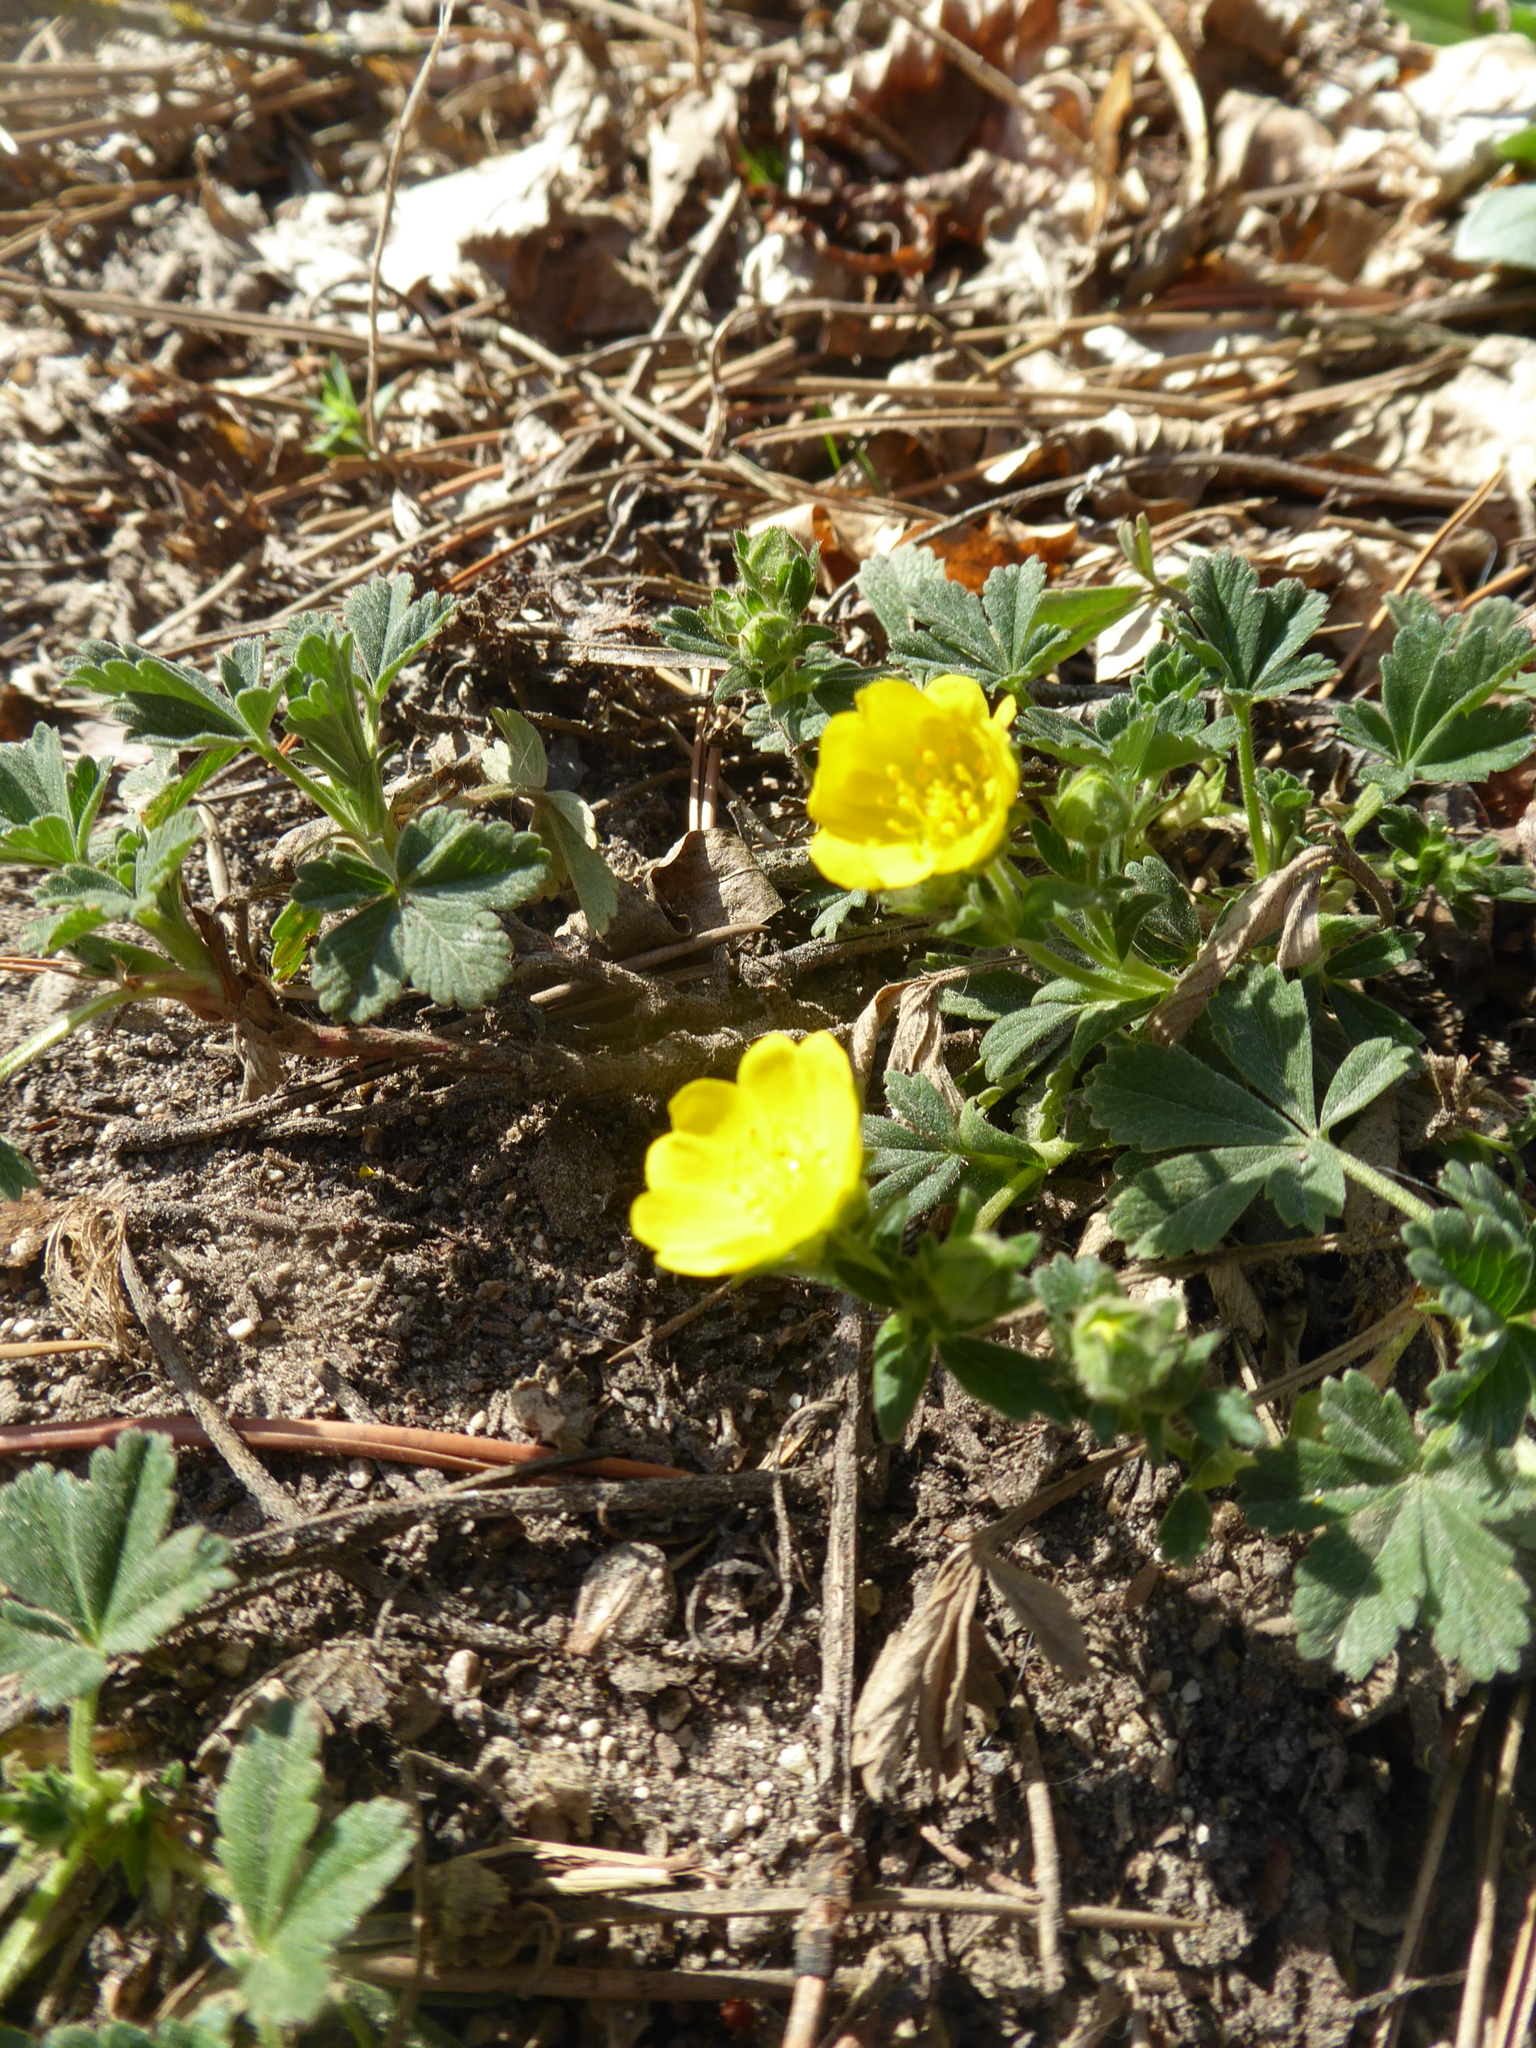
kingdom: Plantae
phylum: Tracheophyta
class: Magnoliopsida
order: Rosales
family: Rosaceae
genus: Potentilla
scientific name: Potentilla incana
